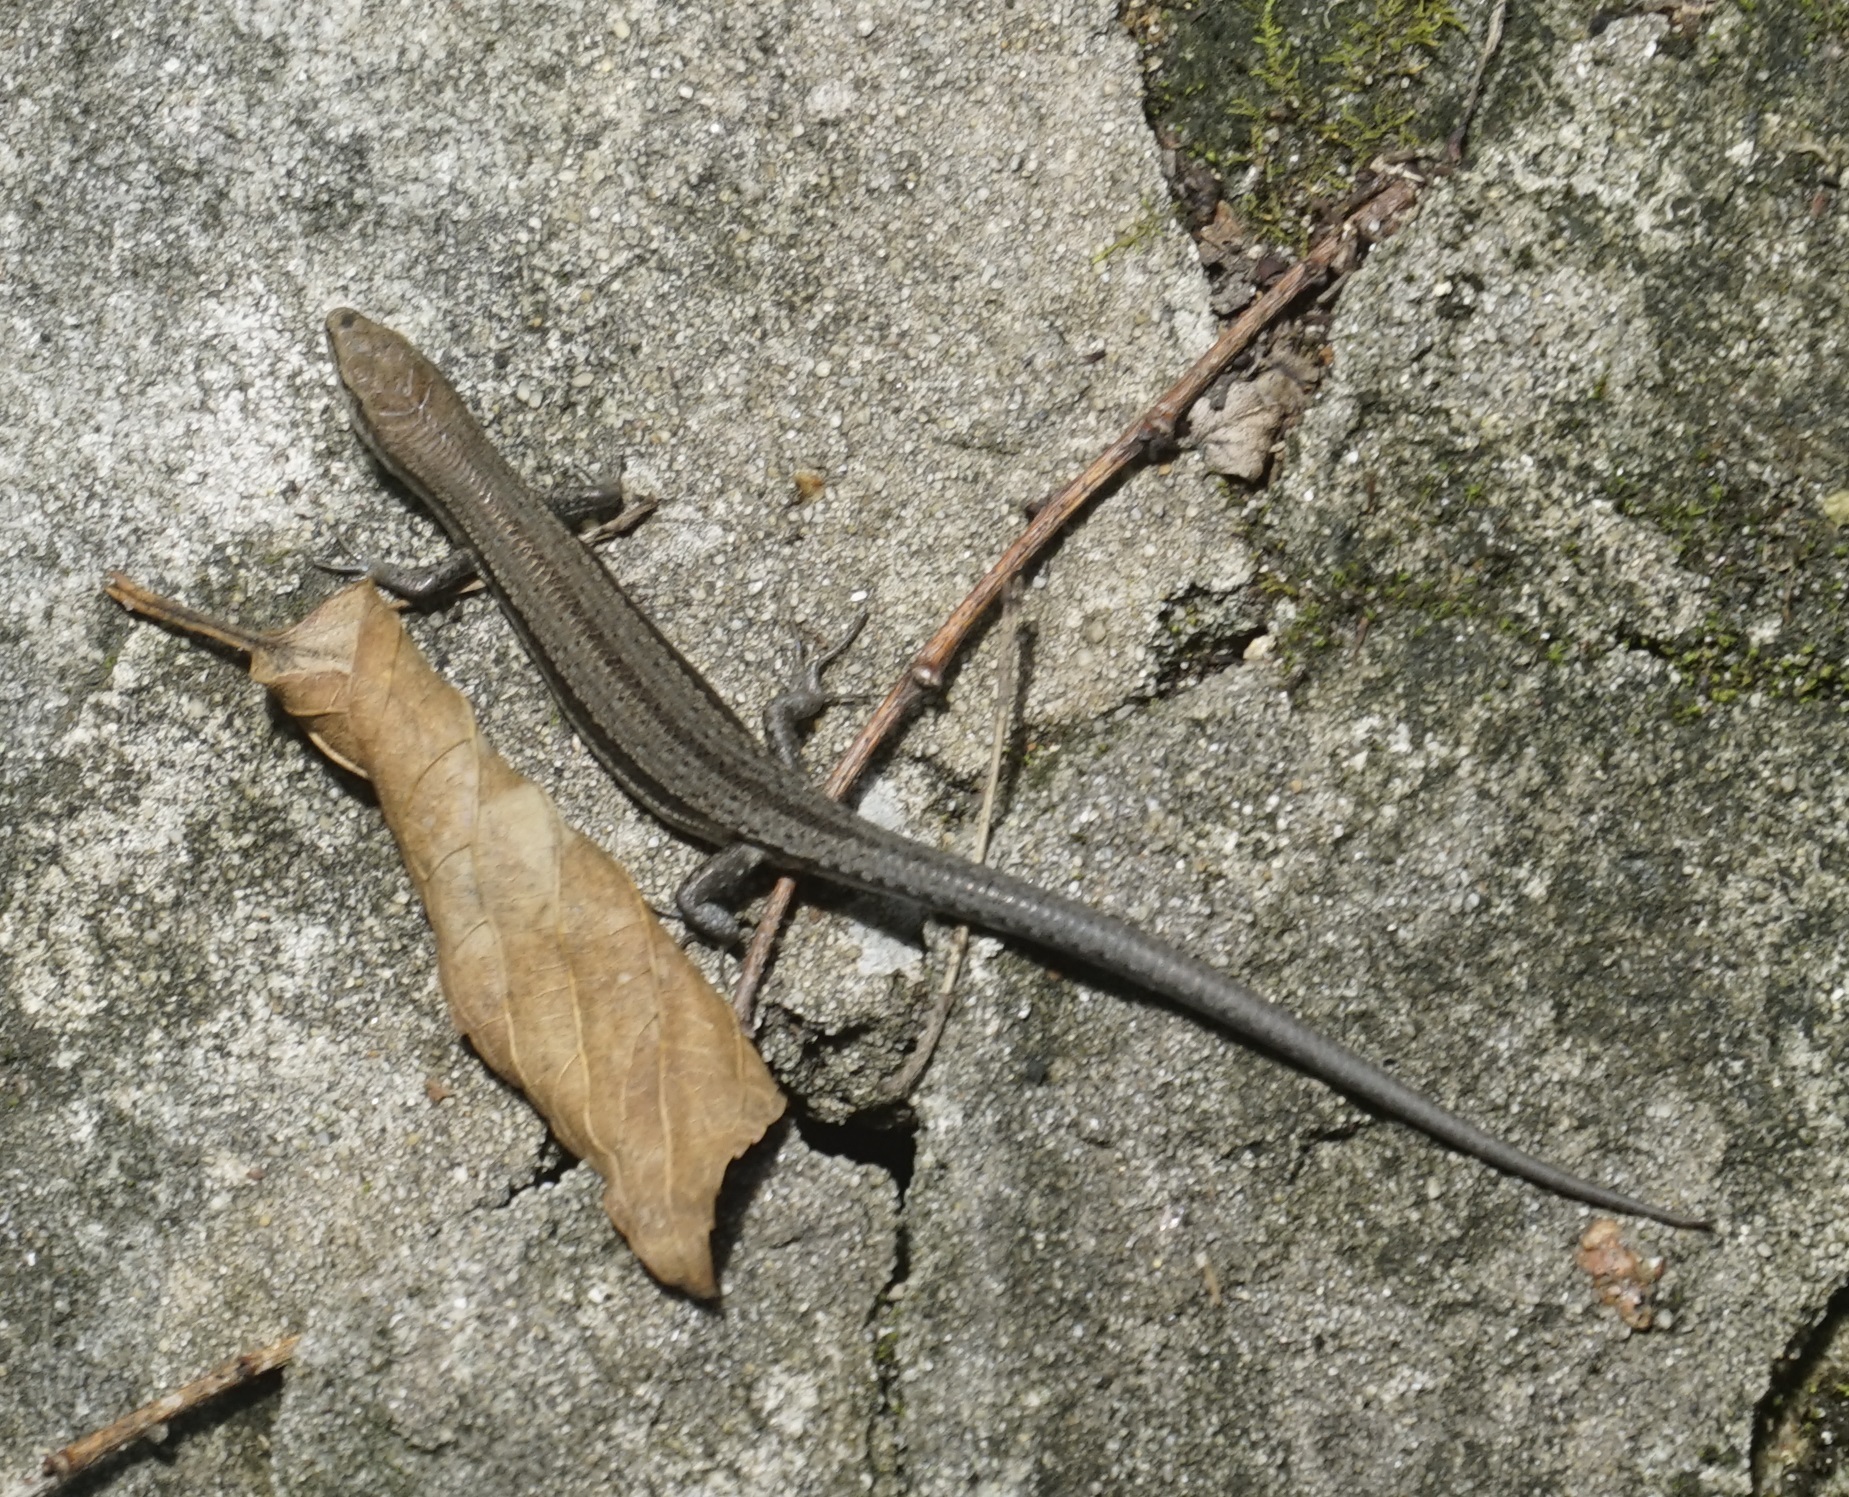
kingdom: Animalia
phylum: Chordata
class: Squamata
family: Scincidae
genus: Lampropholis
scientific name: Lampropholis guichenoti
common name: Garden skink
